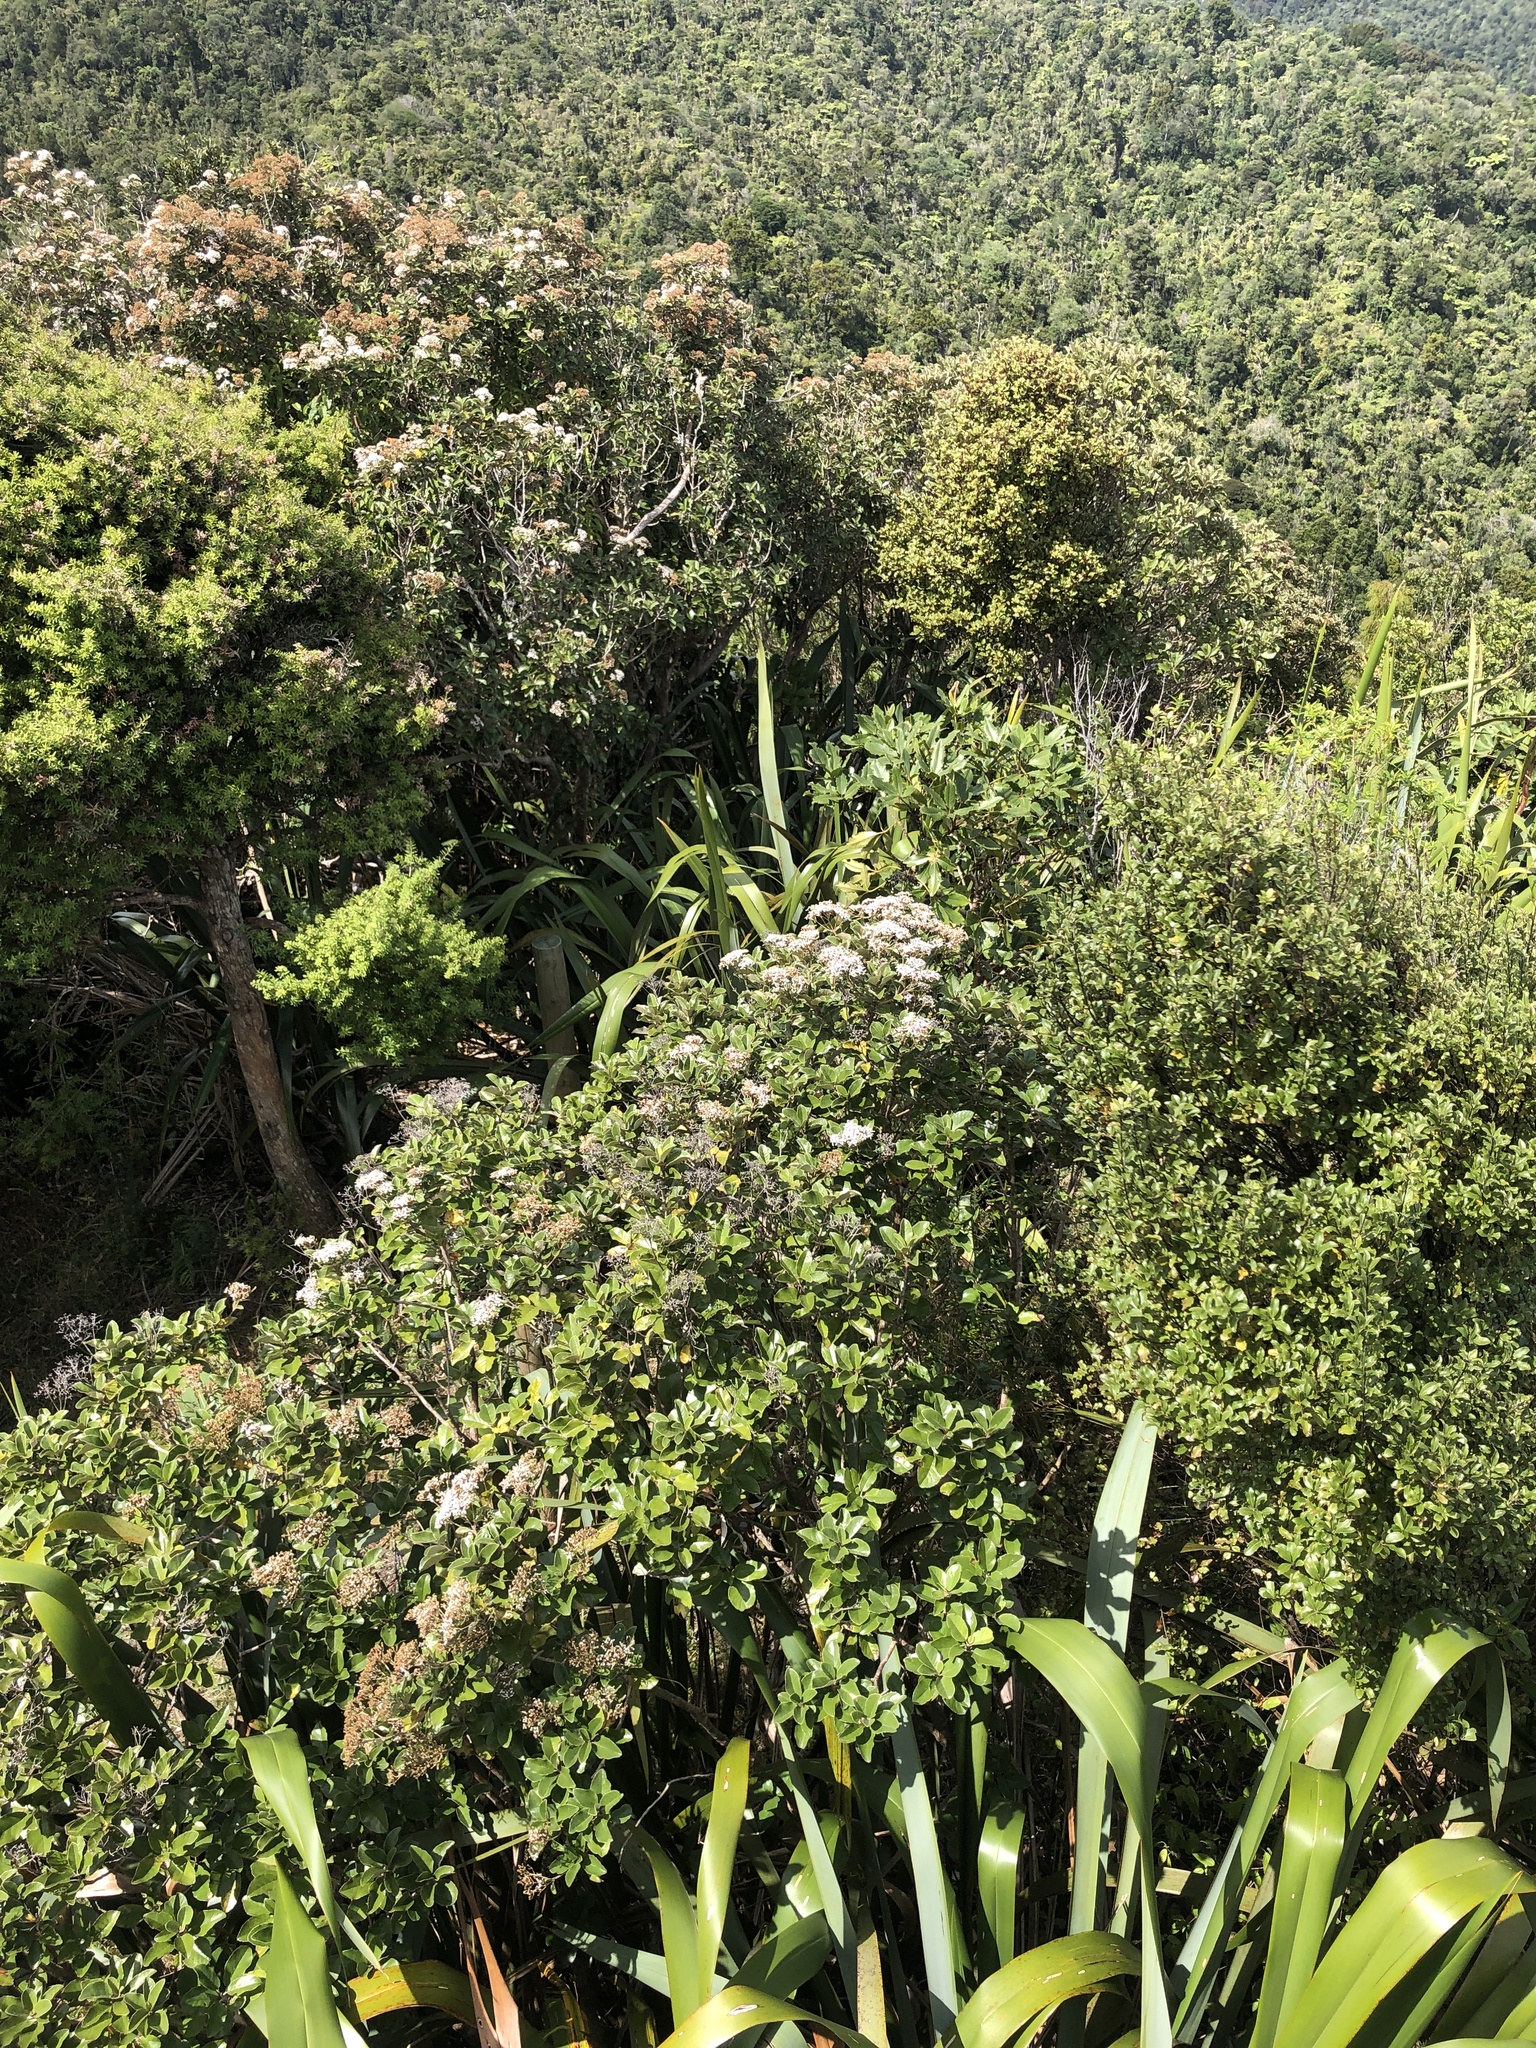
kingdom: Plantae
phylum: Tracheophyta
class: Magnoliopsida
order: Asterales
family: Asteraceae
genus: Olearia
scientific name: Olearia furfuracea
